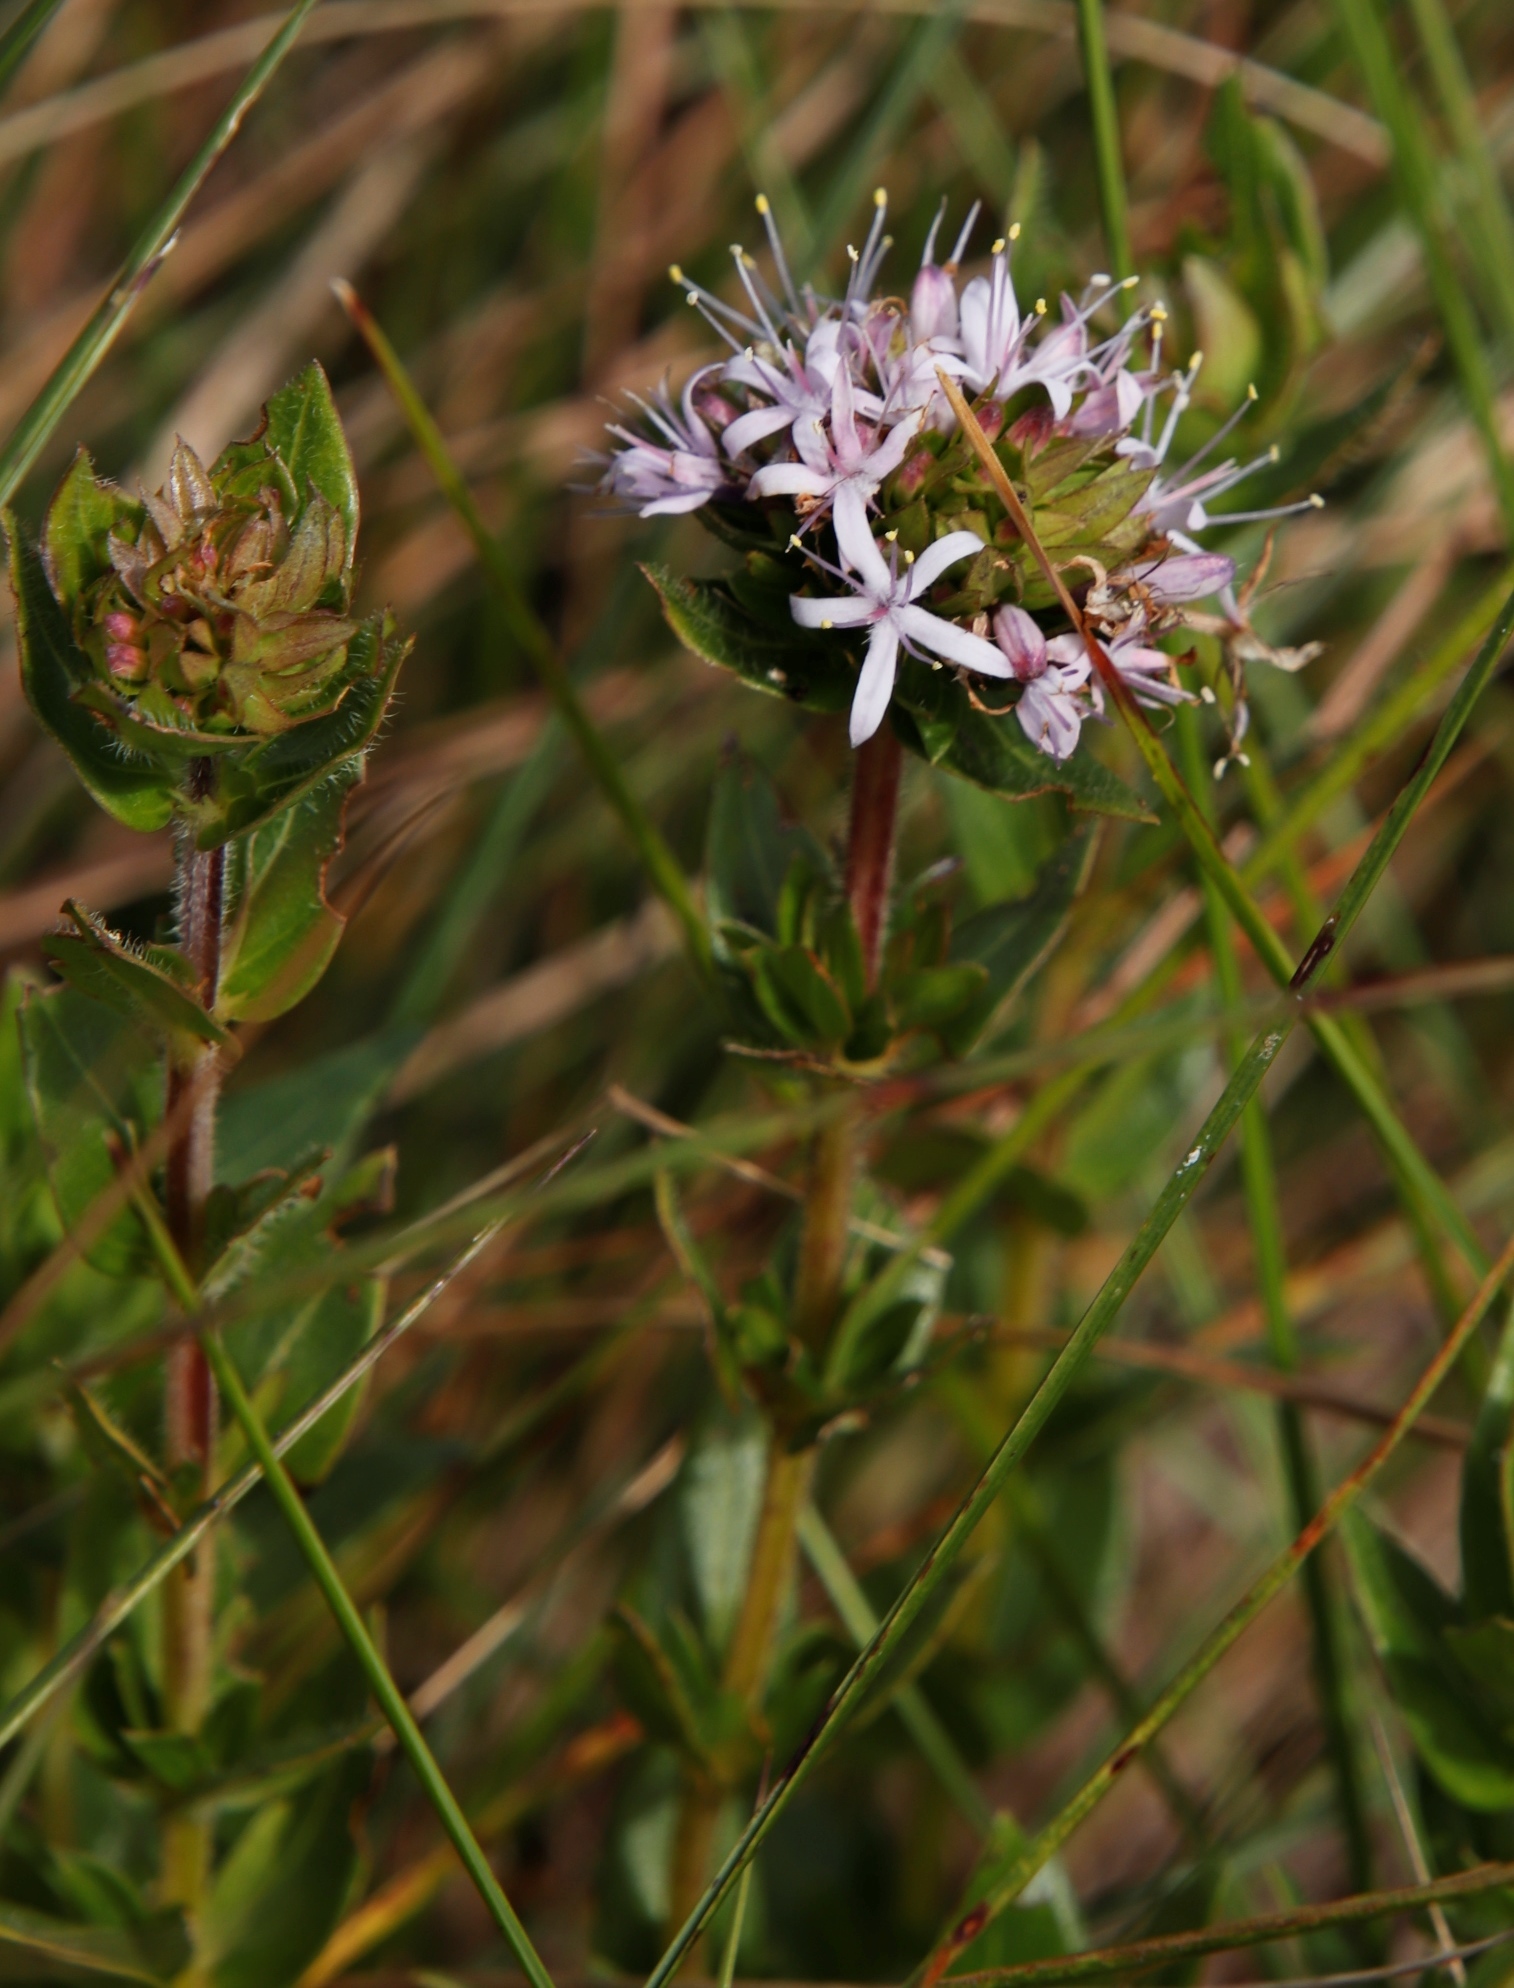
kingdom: Plantae
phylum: Tracheophyta
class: Magnoliopsida
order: Gentianales
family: Rubiaceae
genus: Otiophora
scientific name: Otiophora inyangana
